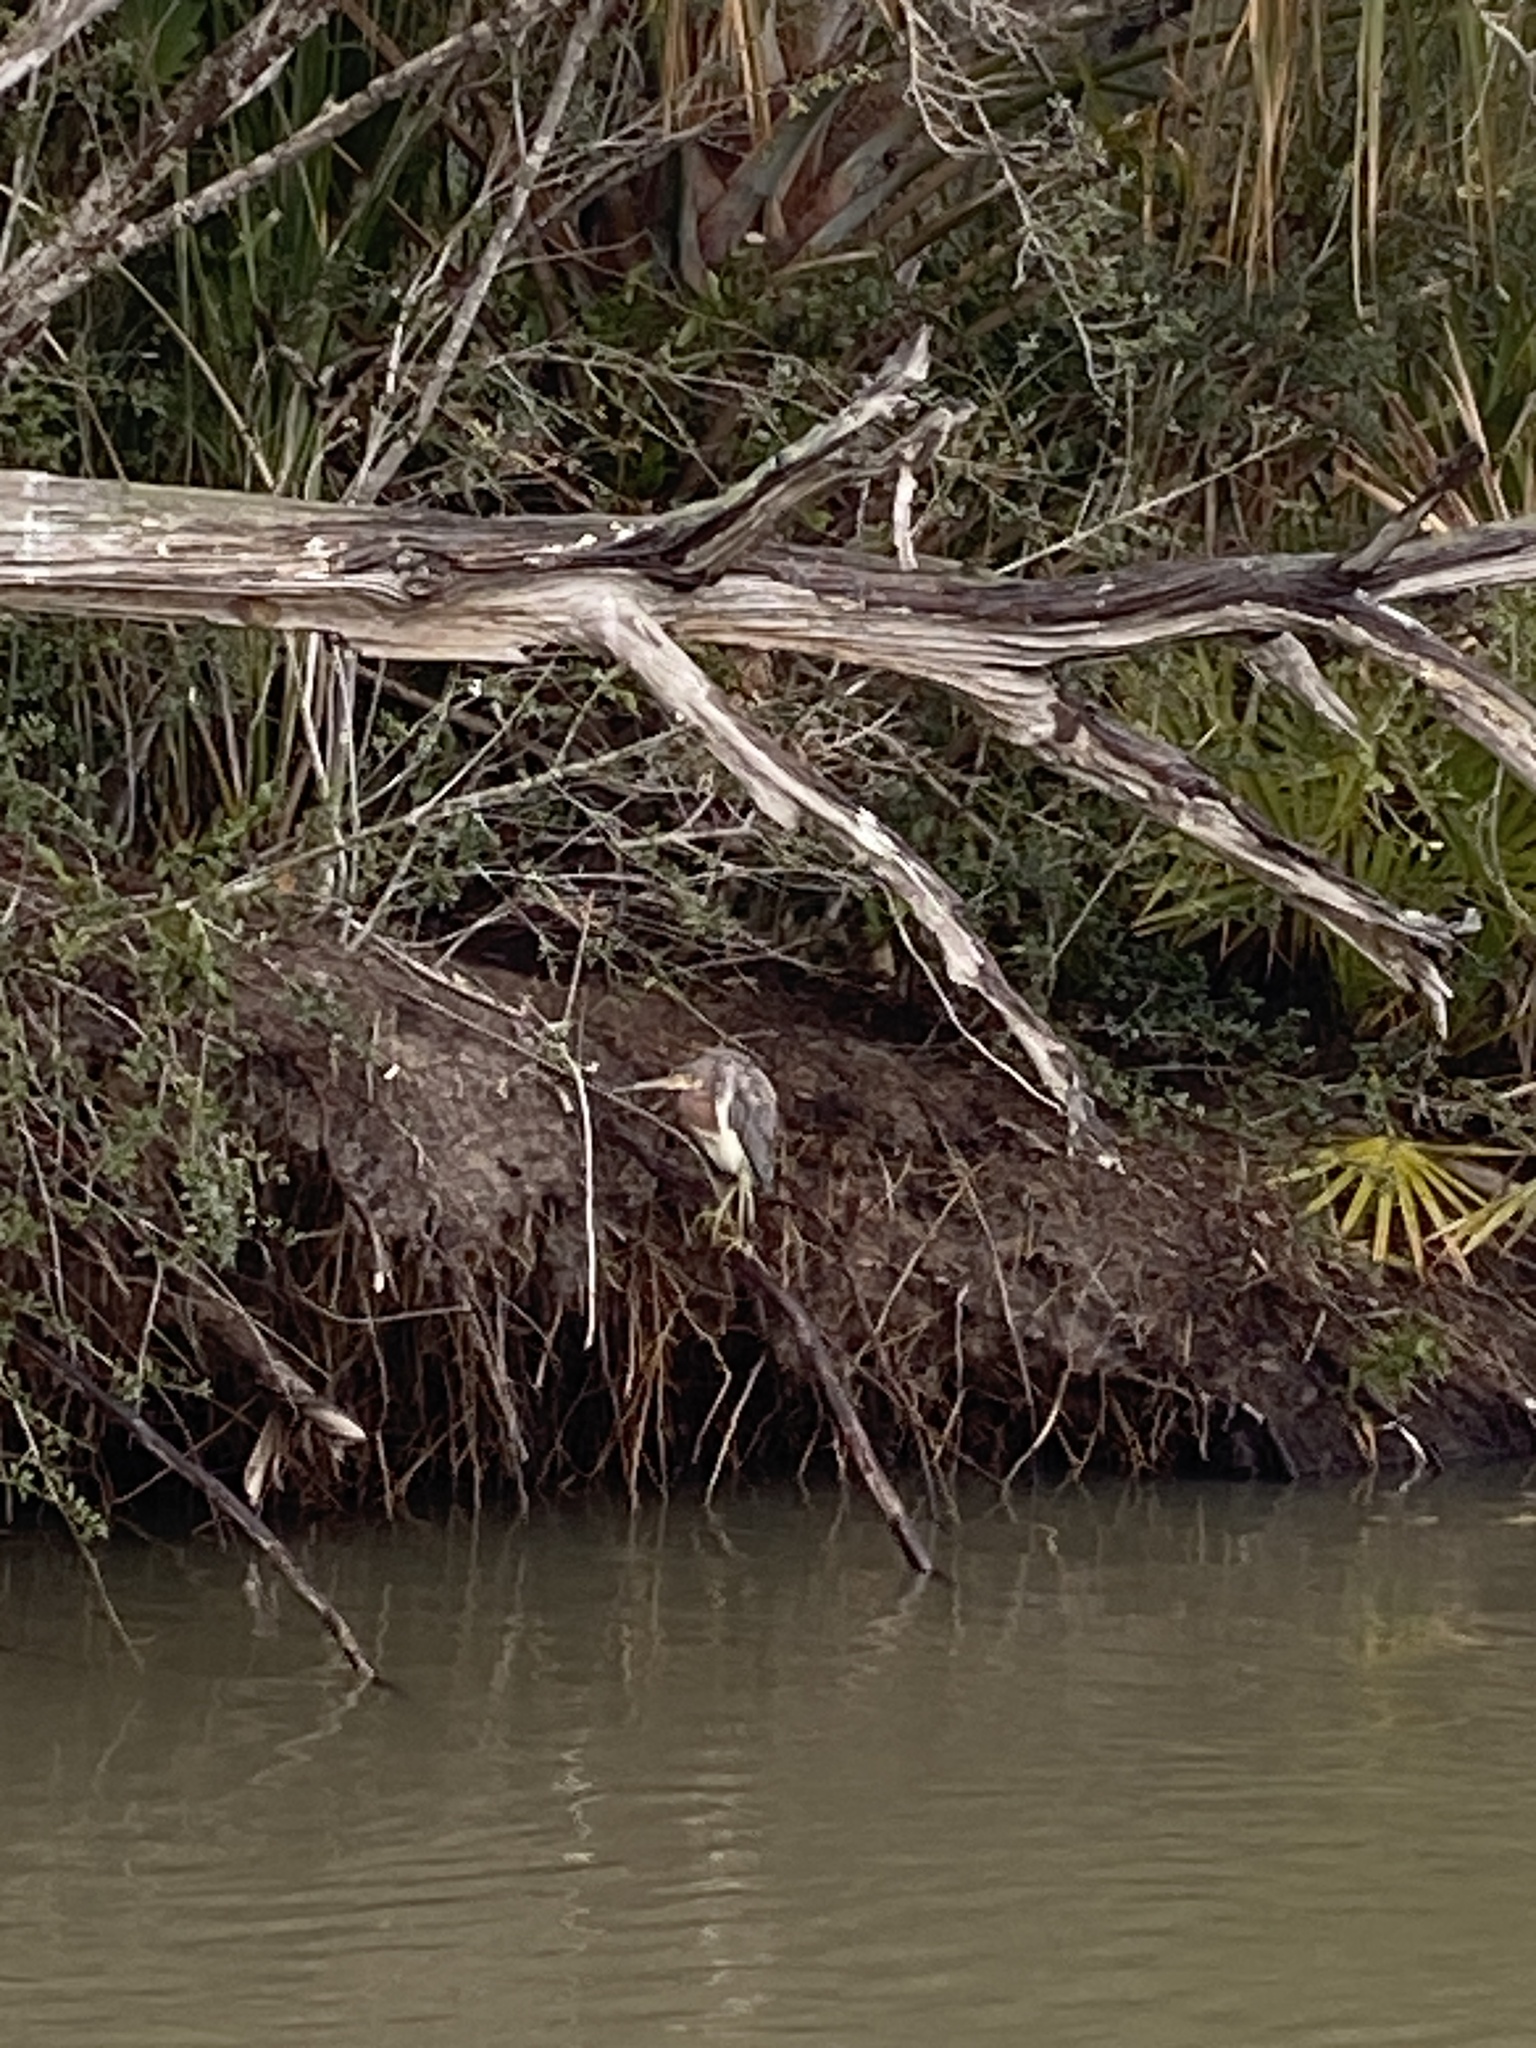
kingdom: Animalia
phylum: Chordata
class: Aves
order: Pelecaniformes
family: Ardeidae
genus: Egretta
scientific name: Egretta tricolor
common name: Tricolored heron
